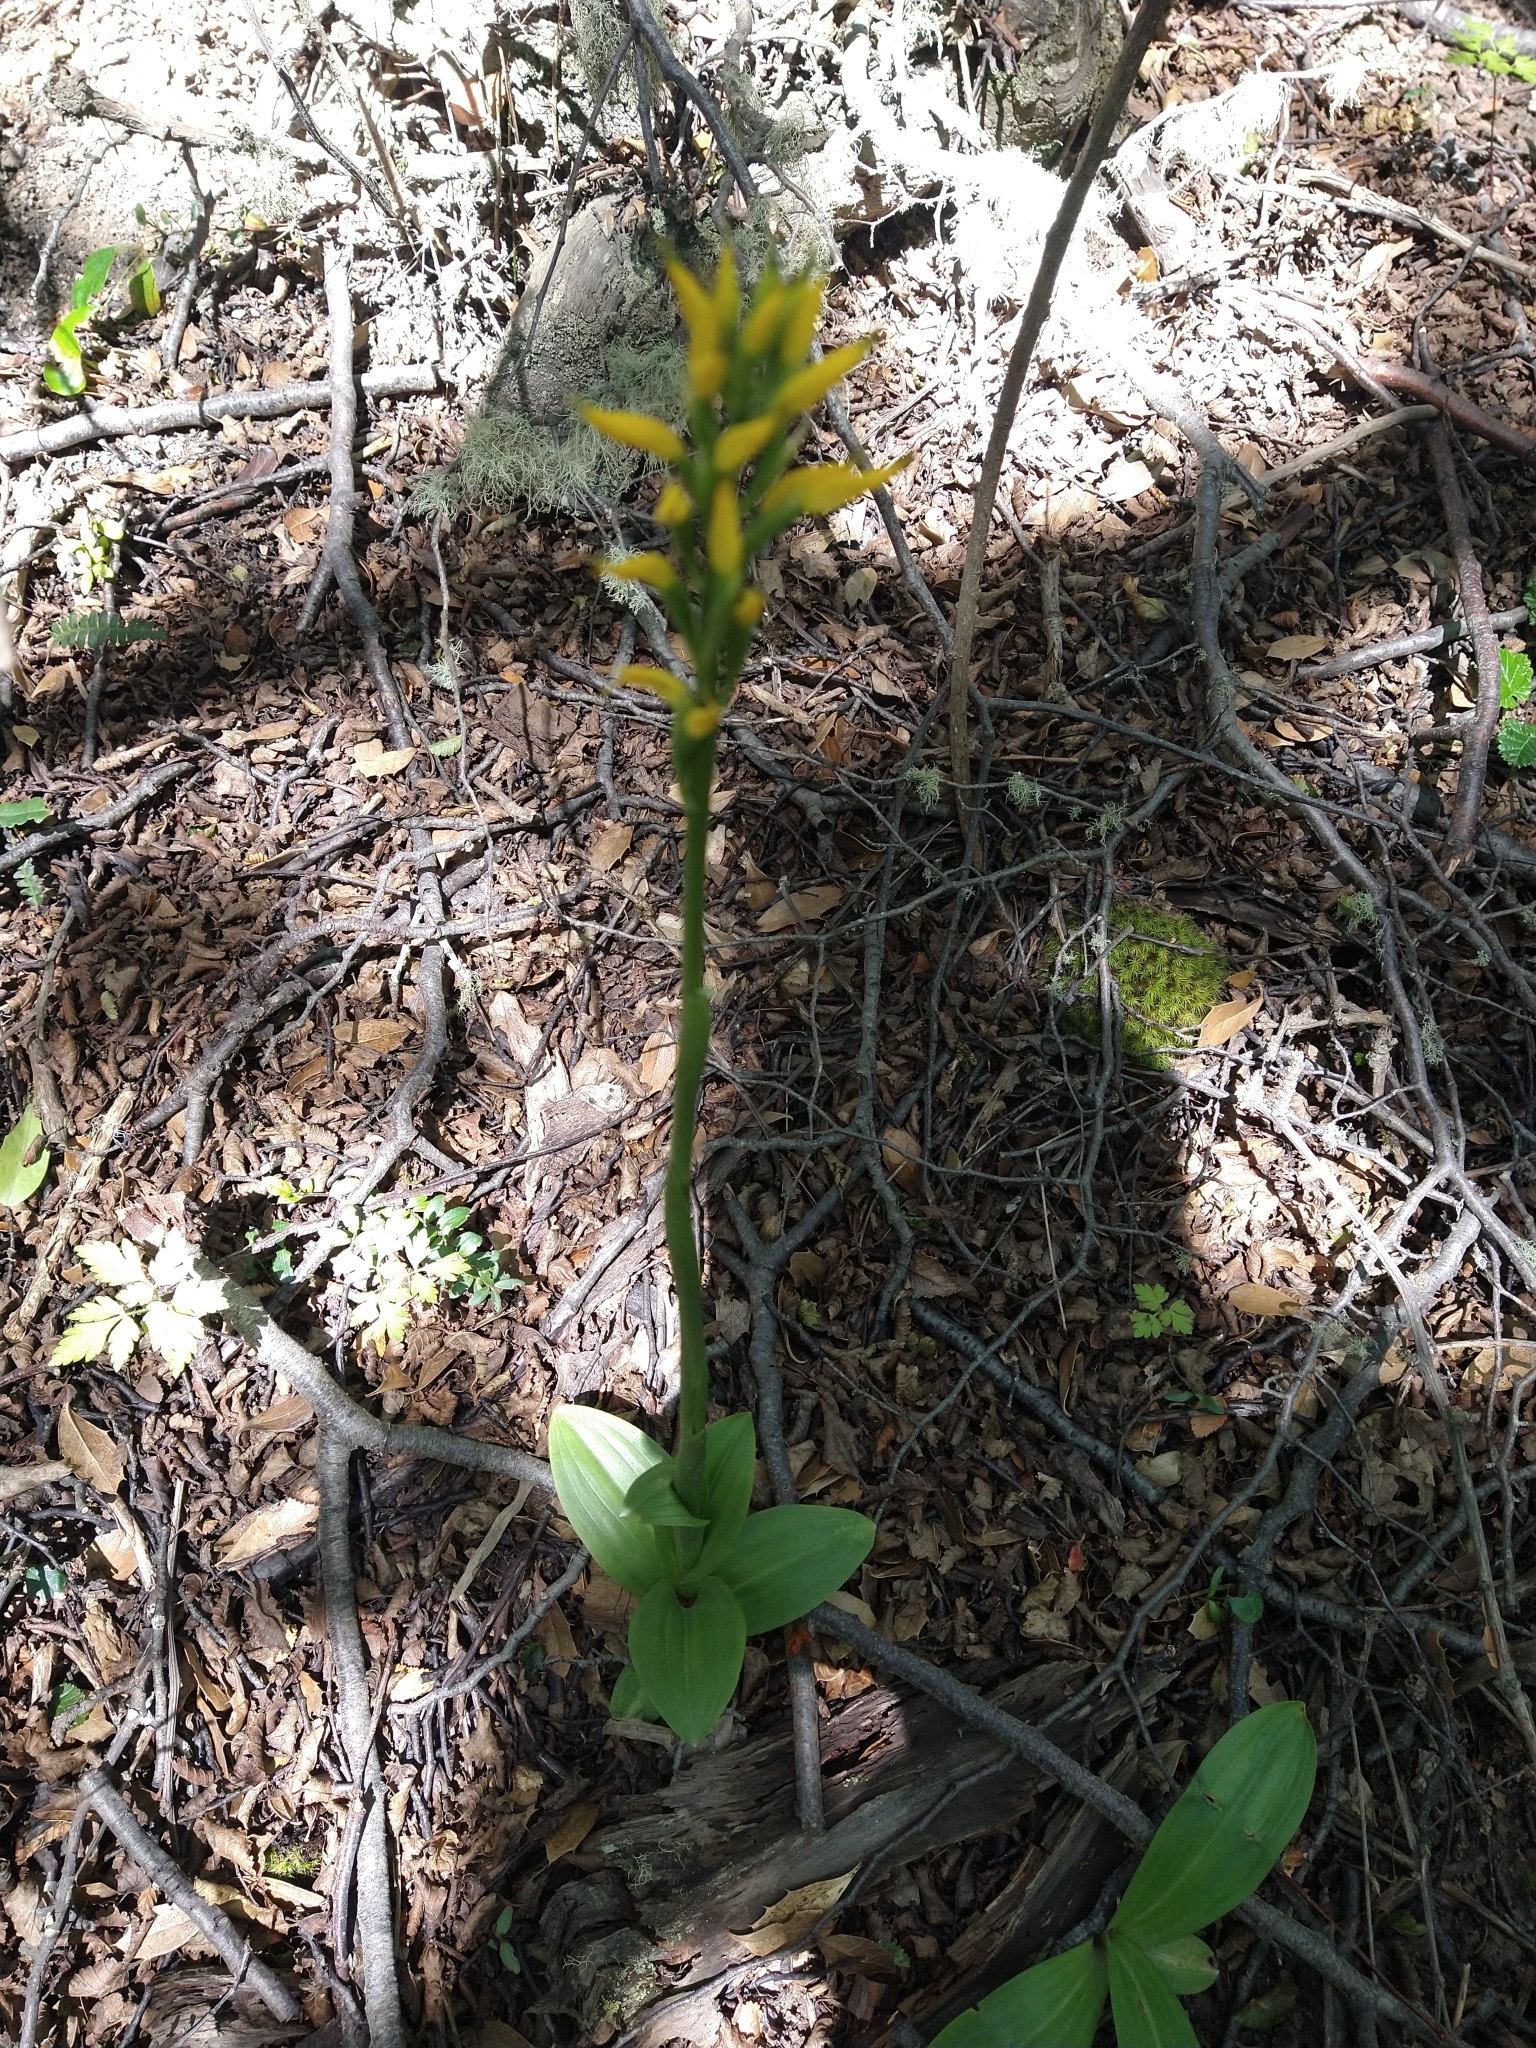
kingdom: Plantae
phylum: Tracheophyta
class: Liliopsida
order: Asparagales
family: Orchidaceae
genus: Gavilea
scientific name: Gavilea lutea
